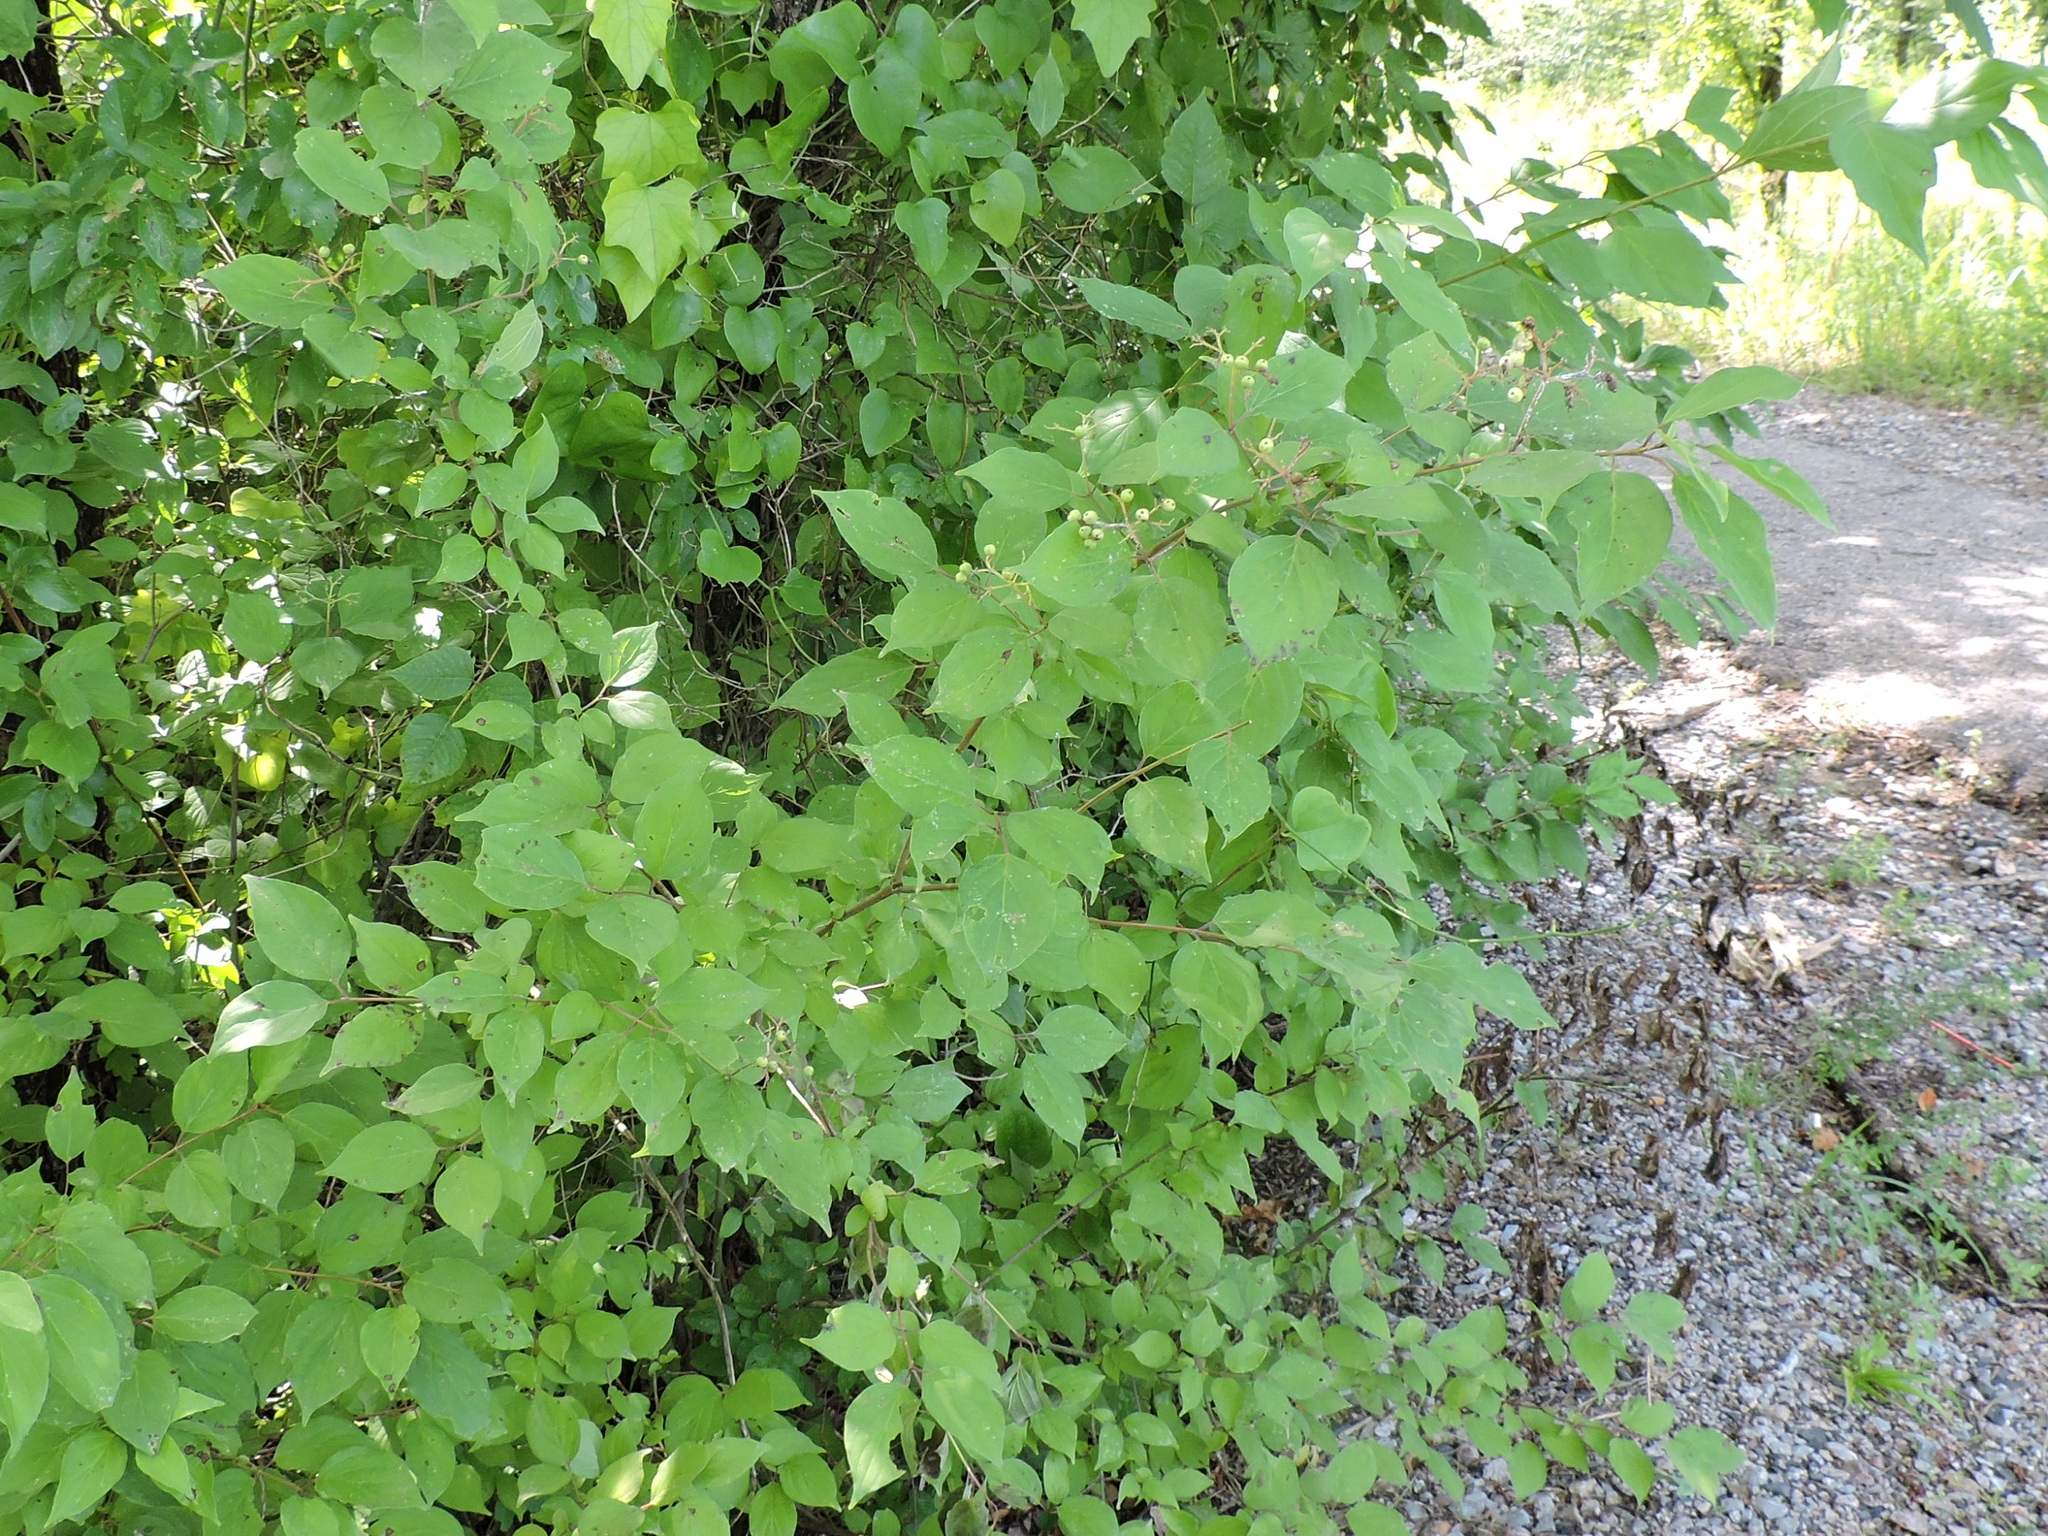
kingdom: Plantae
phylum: Tracheophyta
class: Magnoliopsida
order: Cornales
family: Cornaceae
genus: Cornus
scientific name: Cornus drummondii
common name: Rough-leaf dogwood
